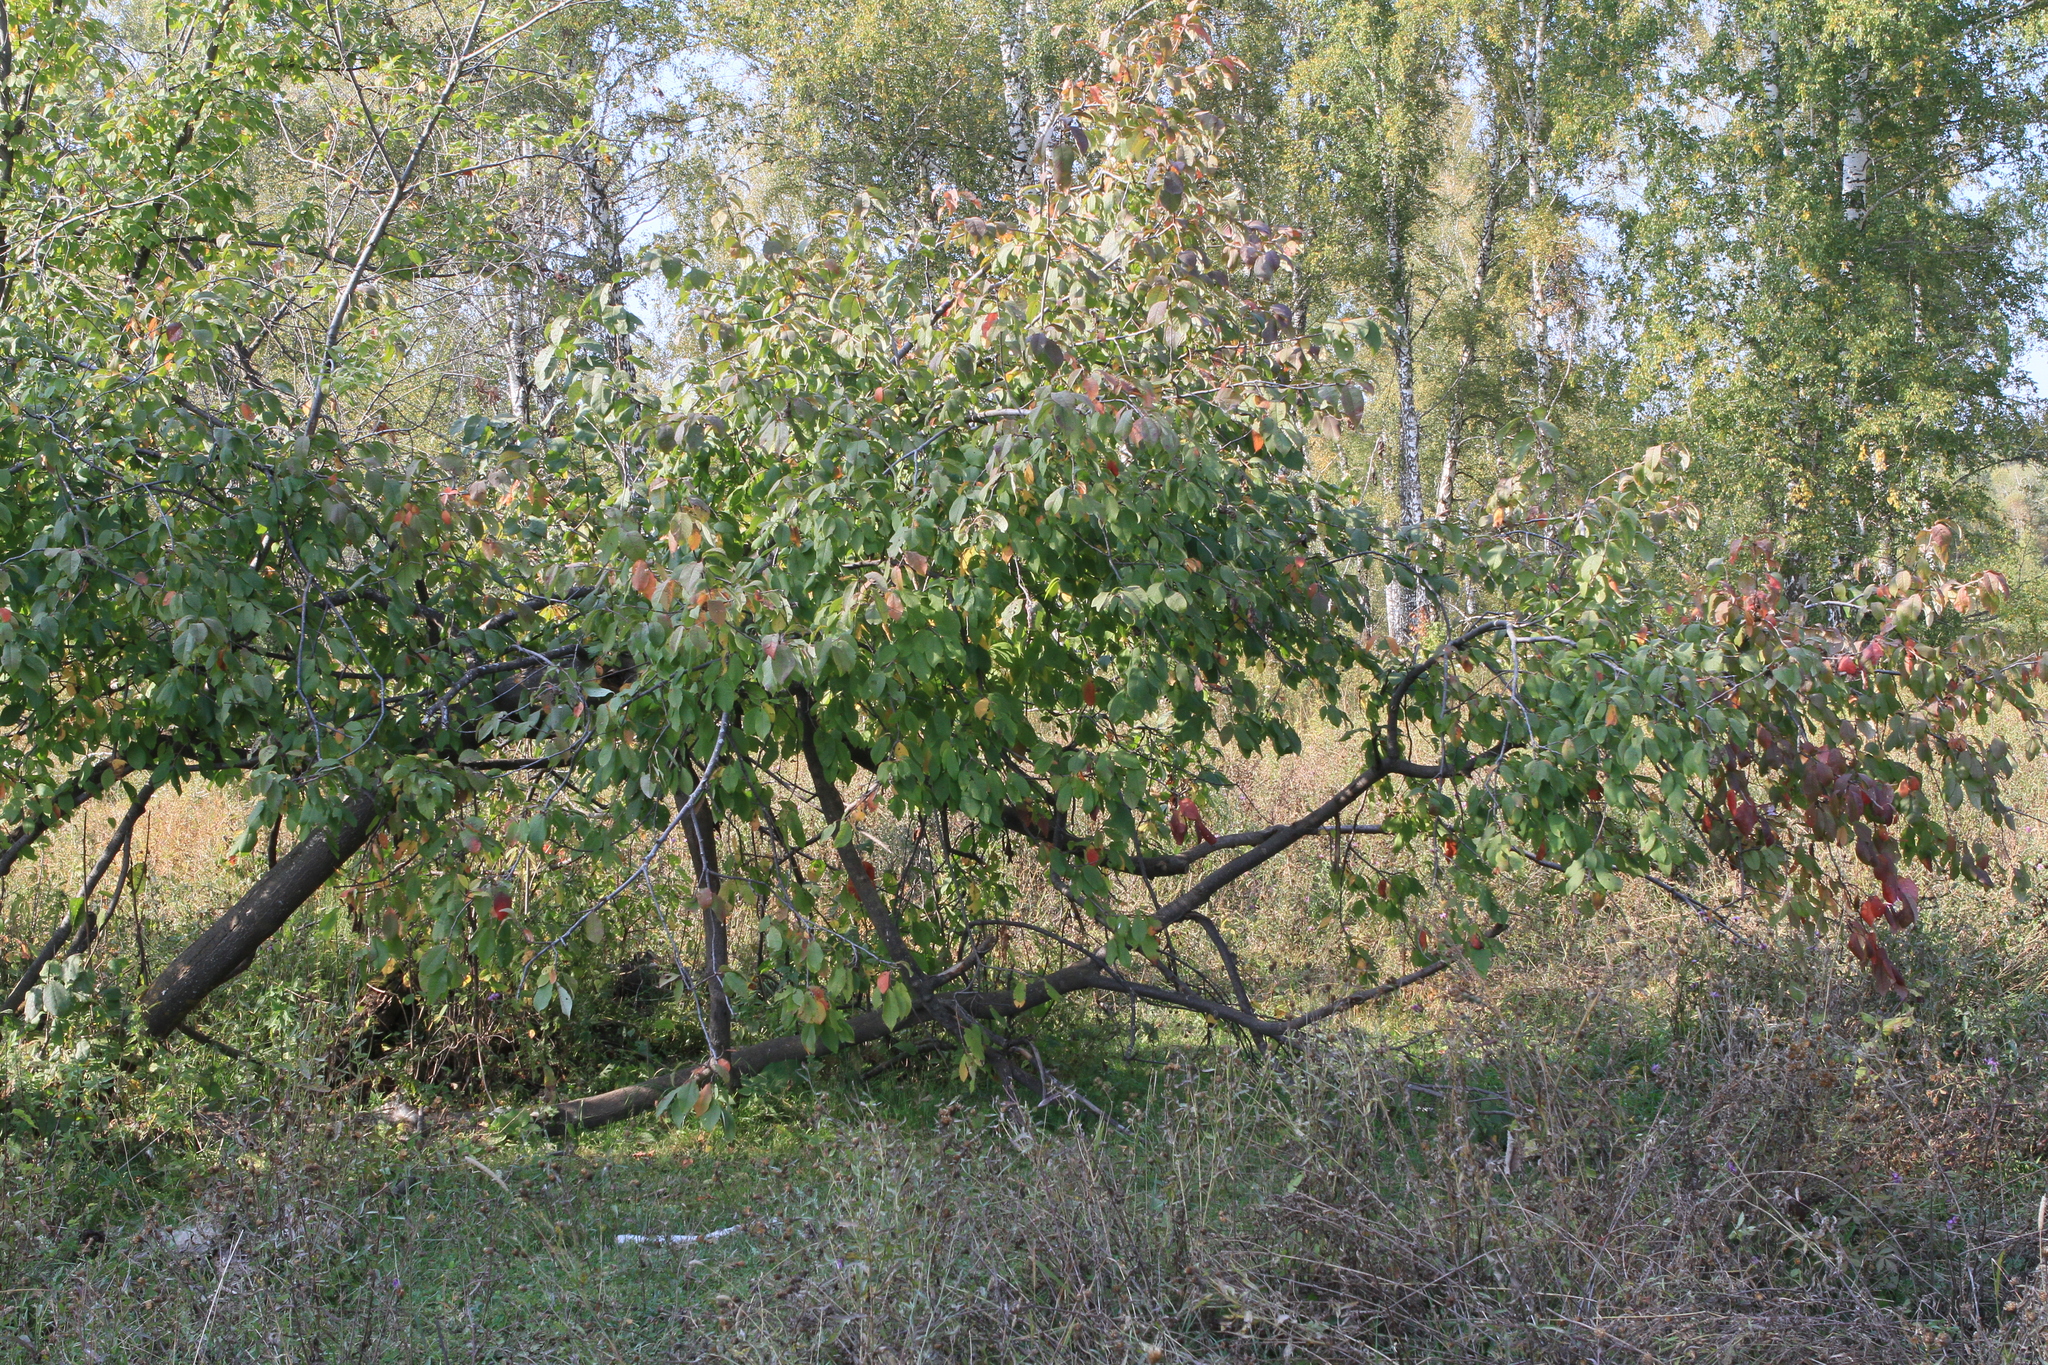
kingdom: Plantae
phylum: Tracheophyta
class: Magnoliopsida
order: Rosales
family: Rosaceae
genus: Prunus
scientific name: Prunus padus
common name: Bird cherry
